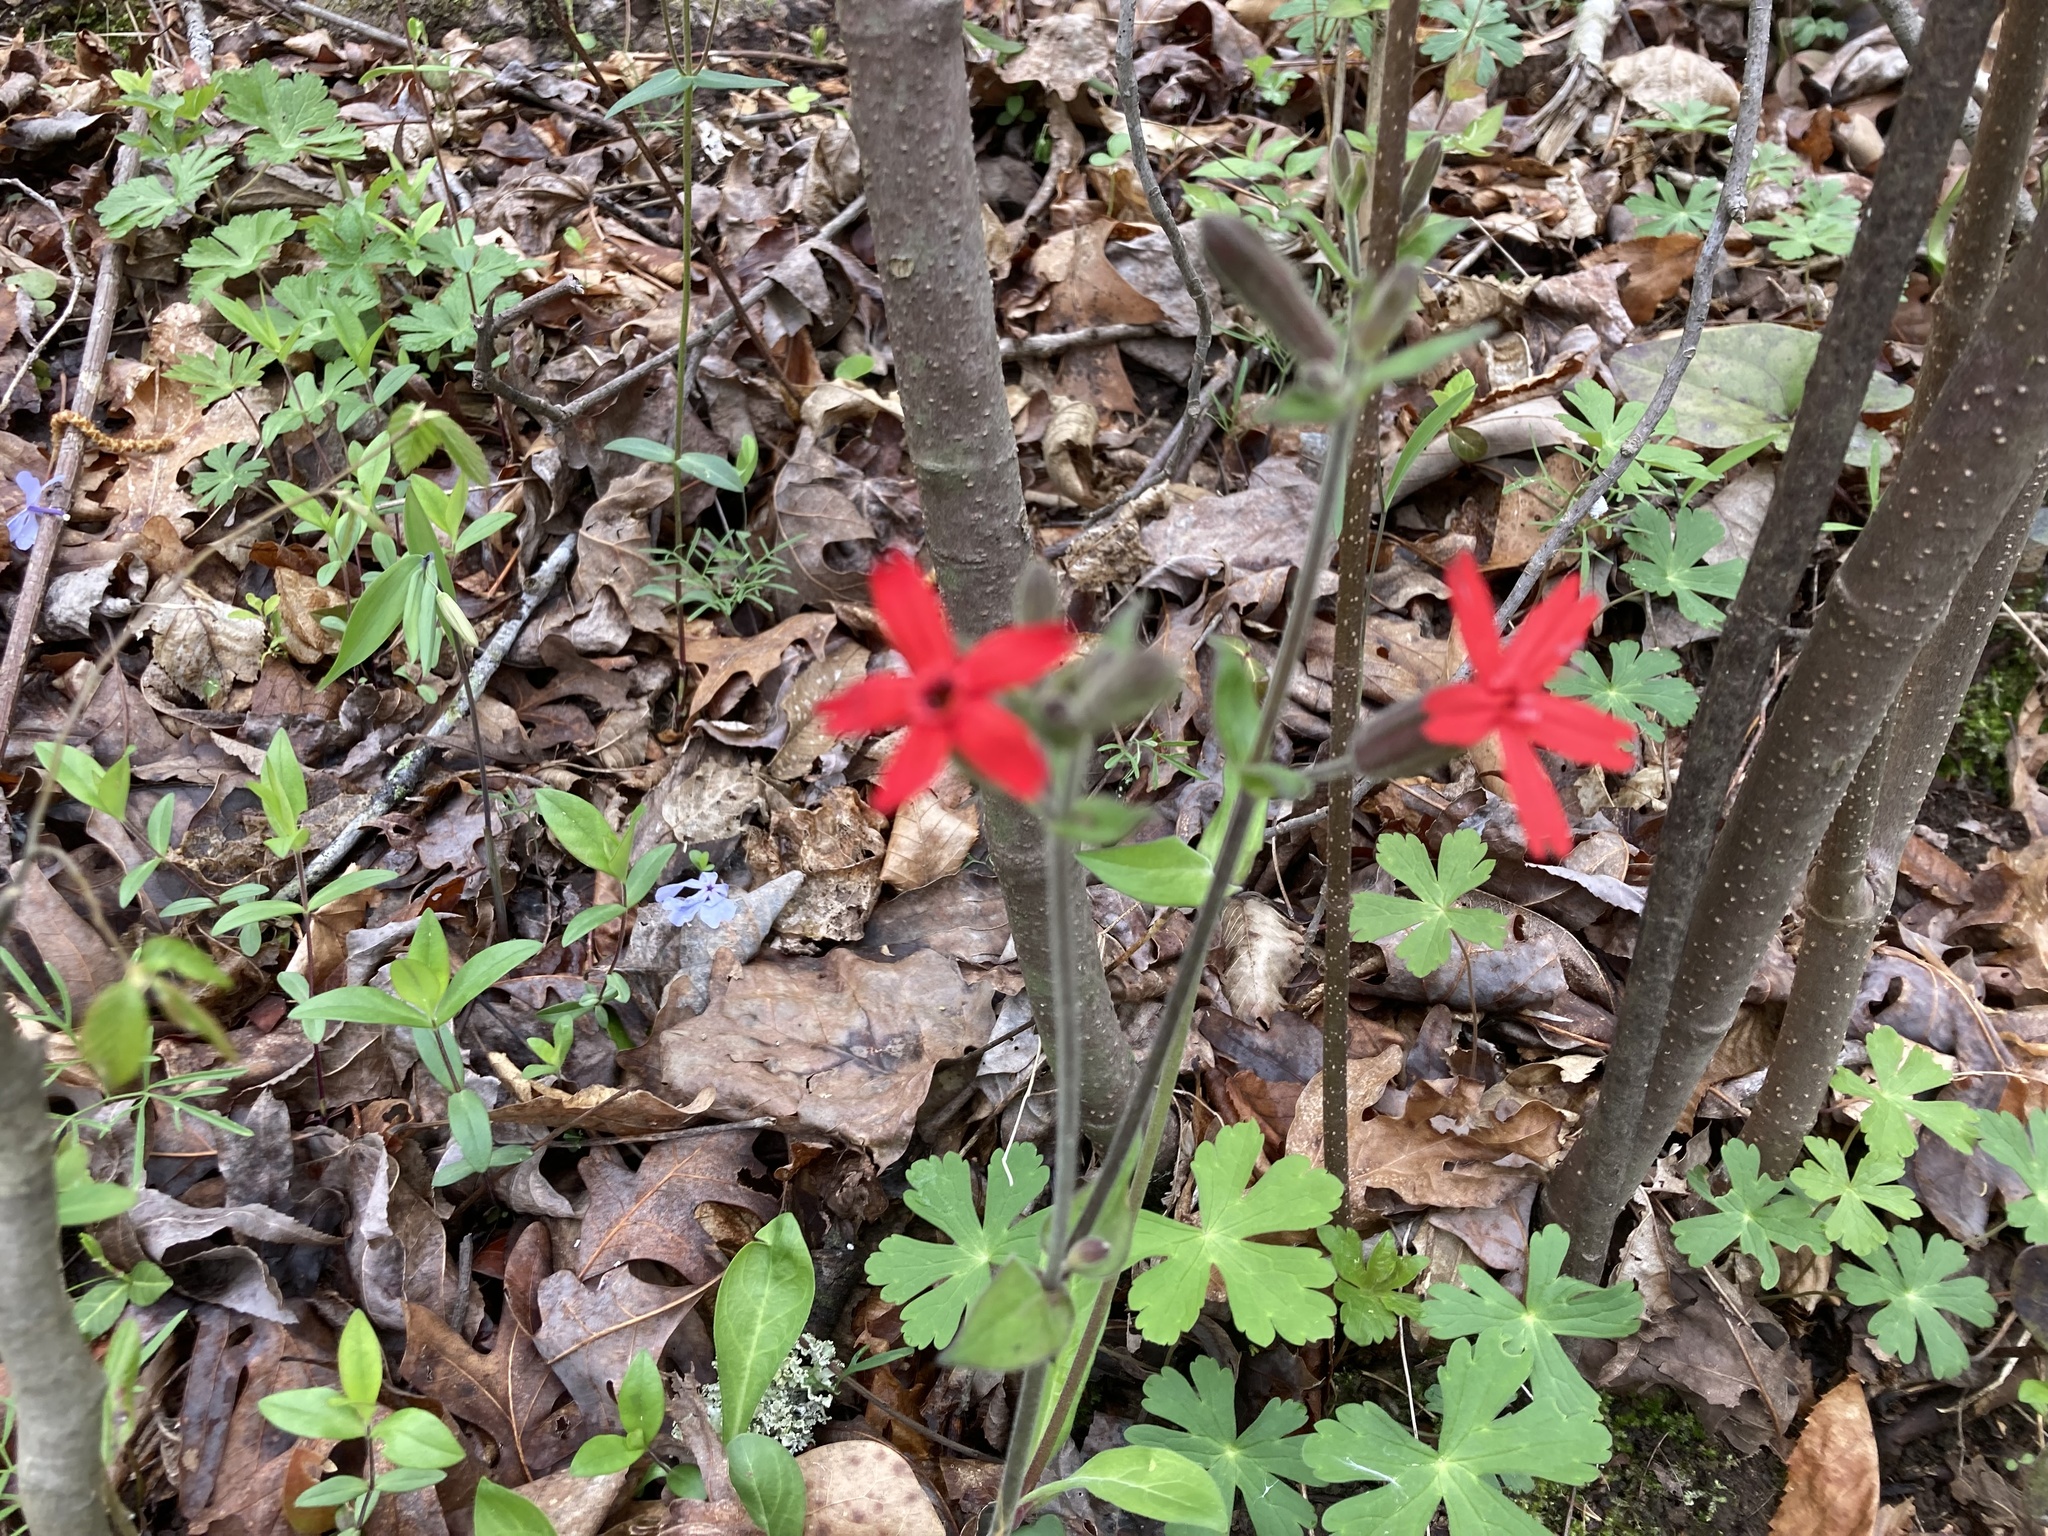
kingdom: Plantae
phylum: Tracheophyta
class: Magnoliopsida
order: Caryophyllales
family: Caryophyllaceae
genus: Silene
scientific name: Silene virginica
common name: Fire-pink
